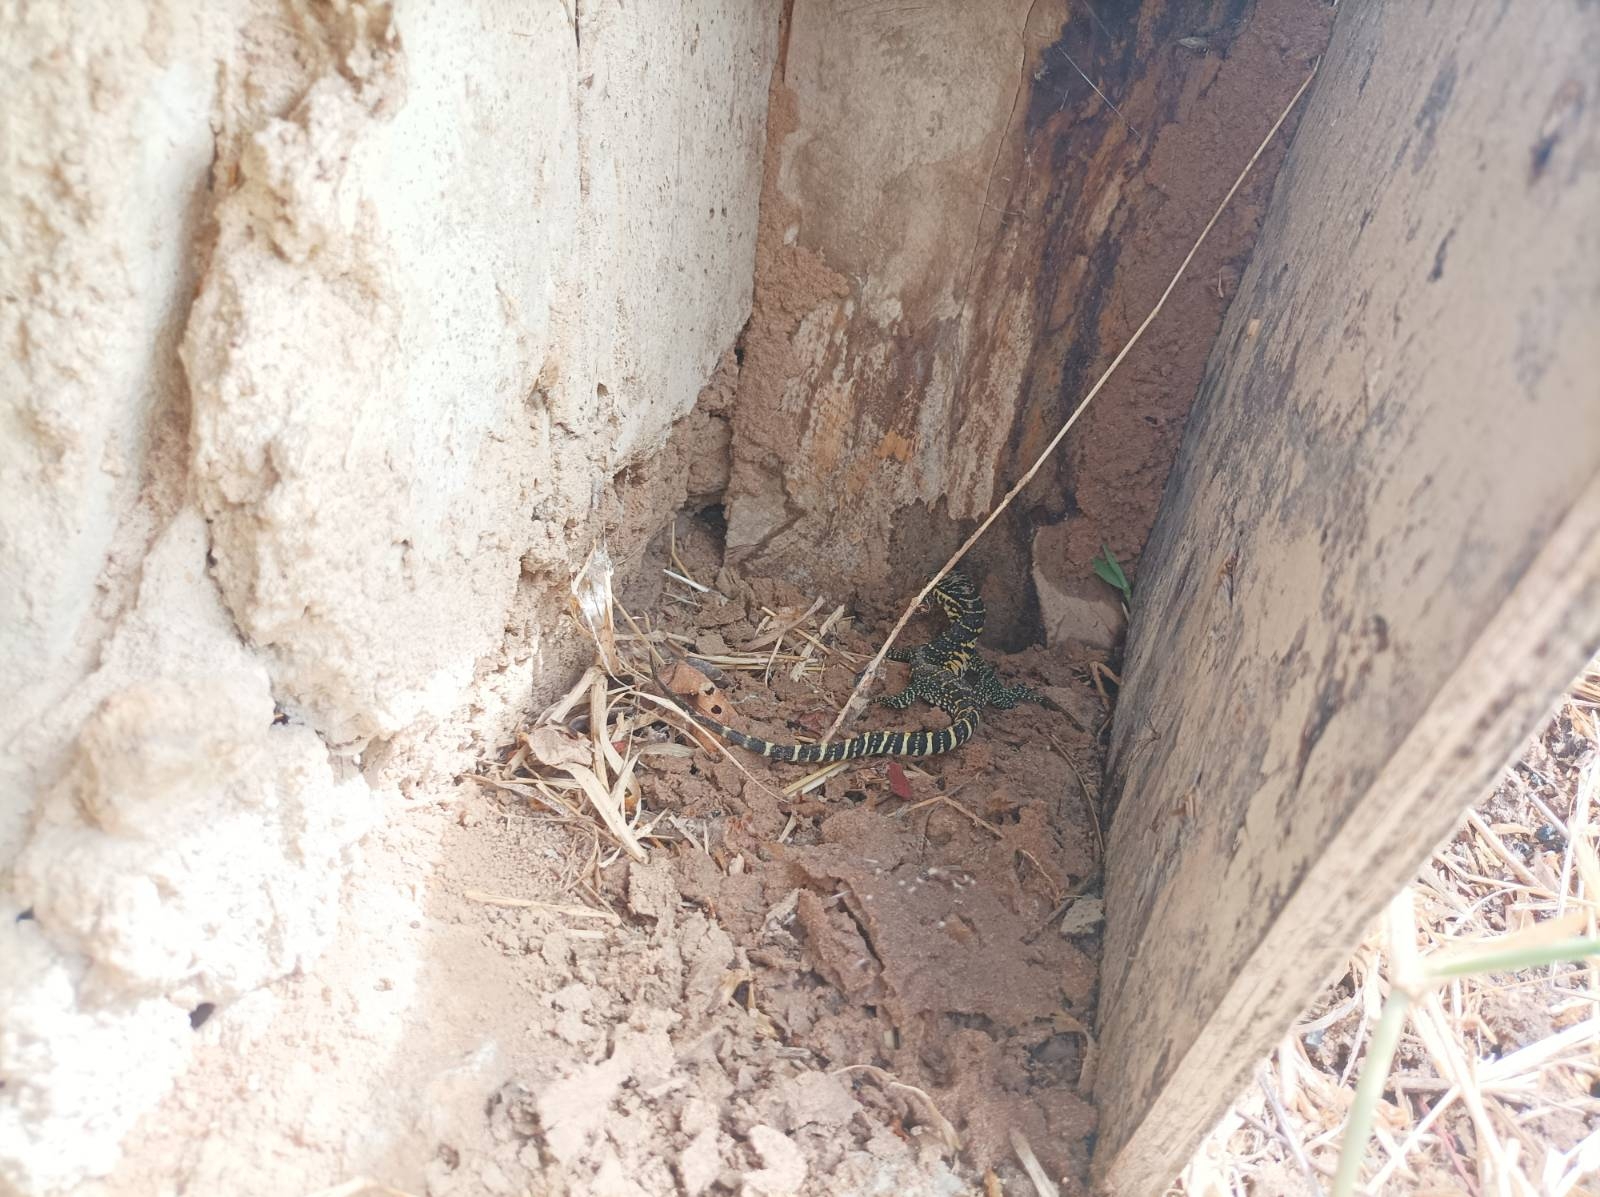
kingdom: Animalia
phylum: Chordata
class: Squamata
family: Varanidae
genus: Varanus
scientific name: Varanus niloticus
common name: Nile monitor
